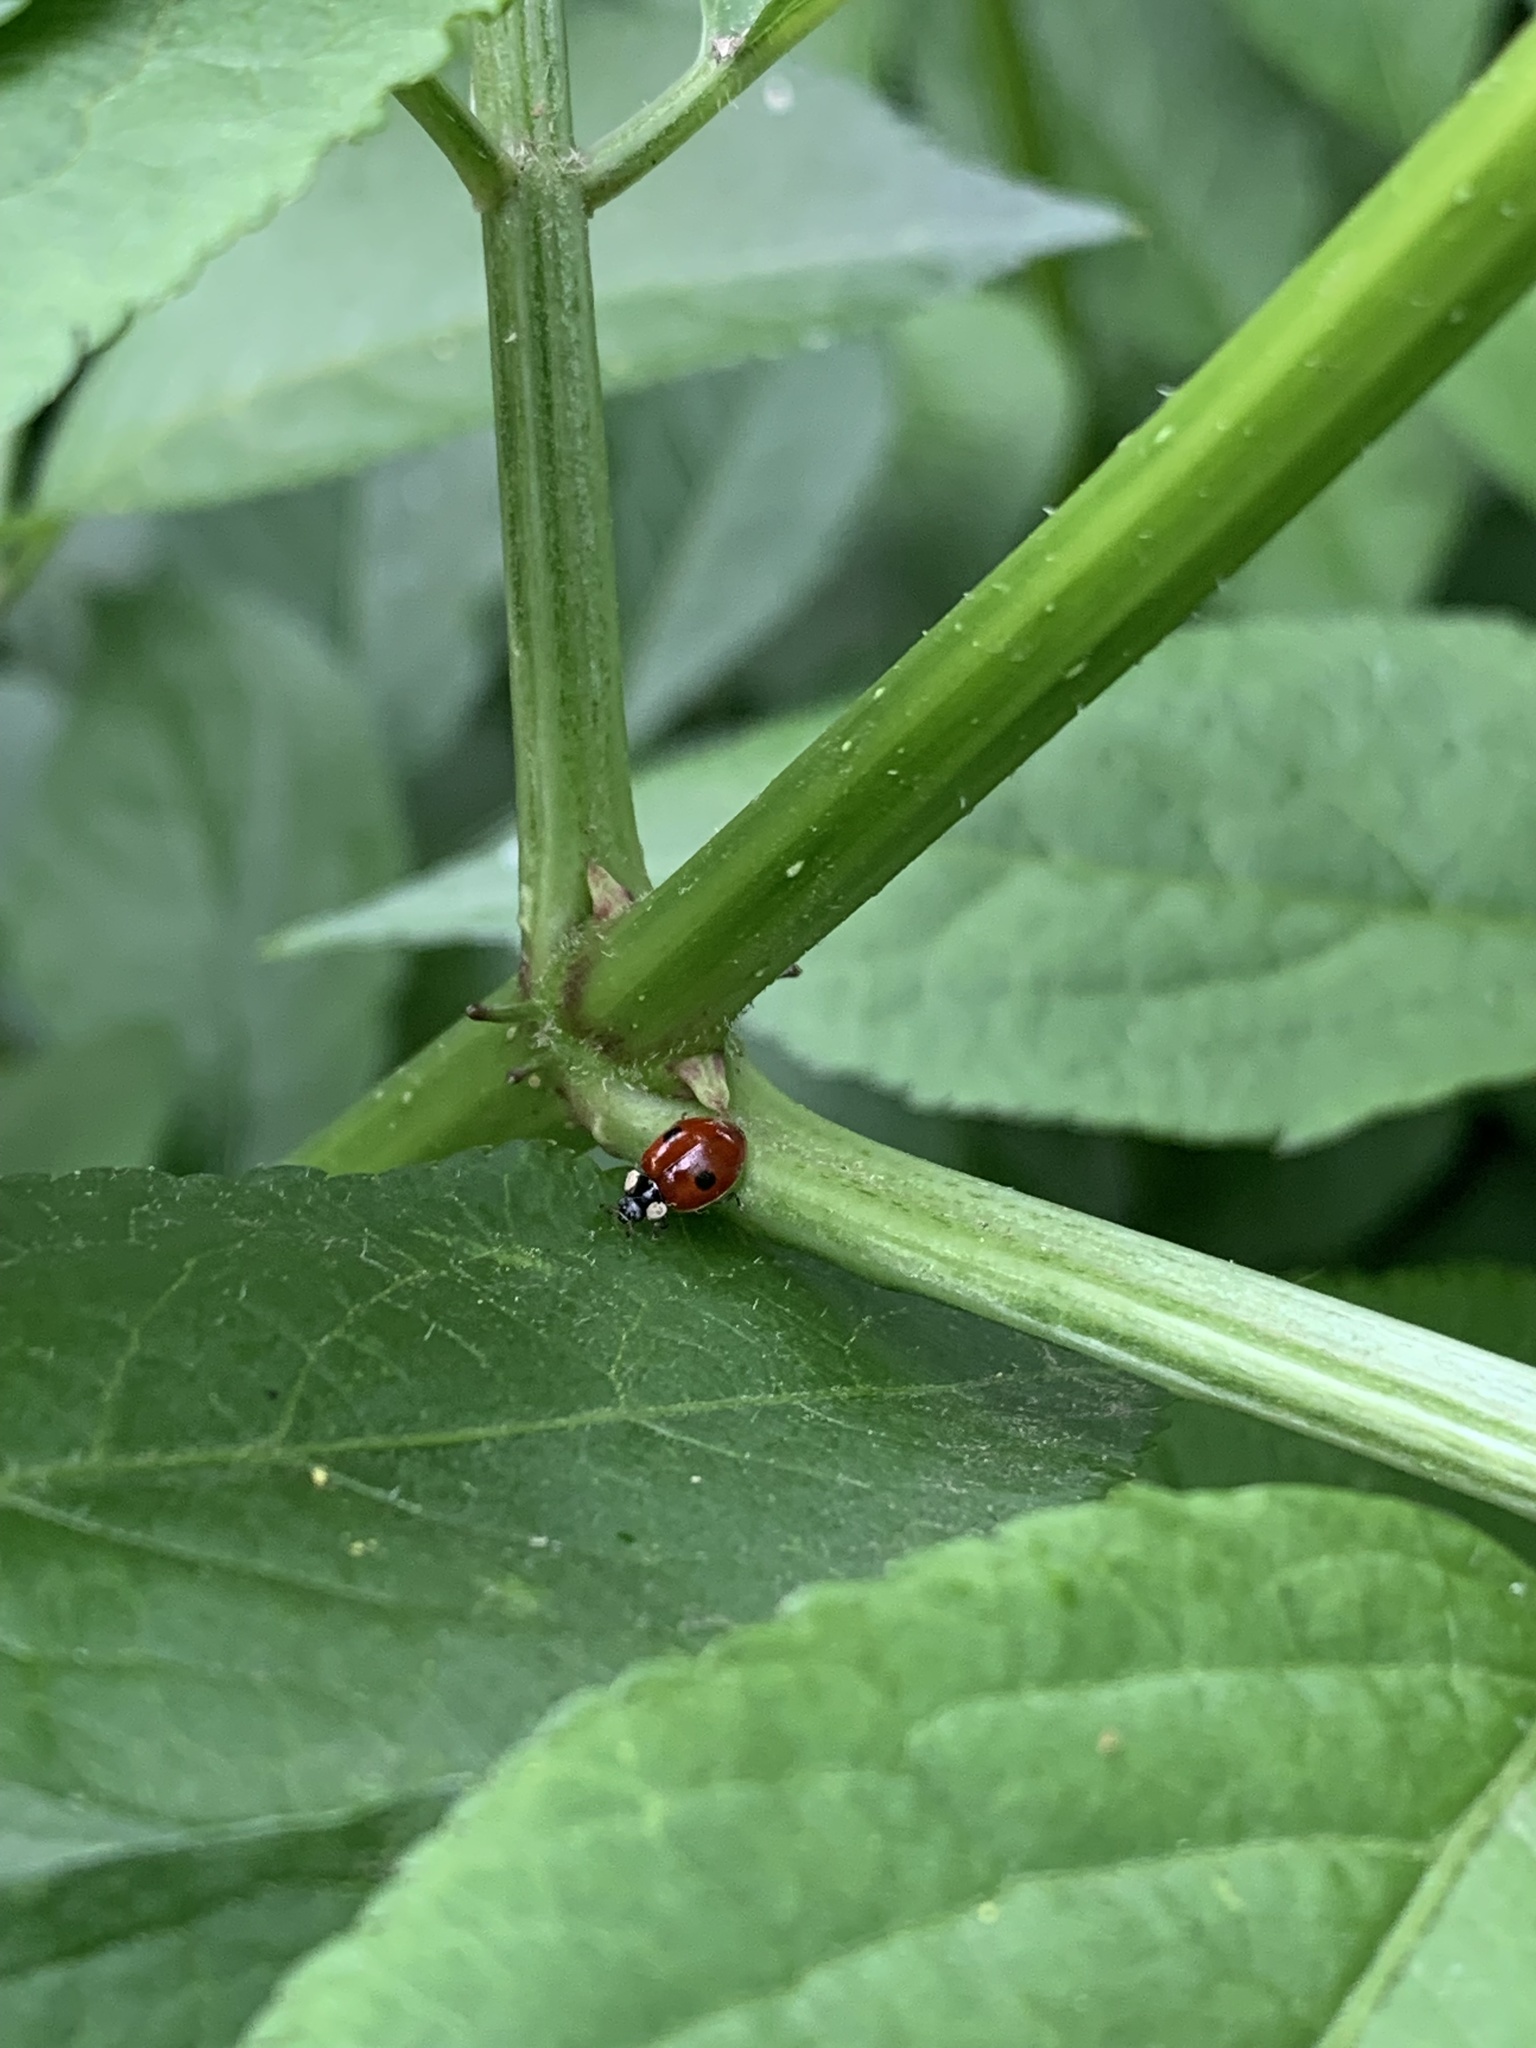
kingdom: Animalia
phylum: Arthropoda
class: Insecta
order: Coleoptera
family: Coccinellidae
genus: Adalia
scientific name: Adalia bipunctata
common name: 2-spot ladybird
